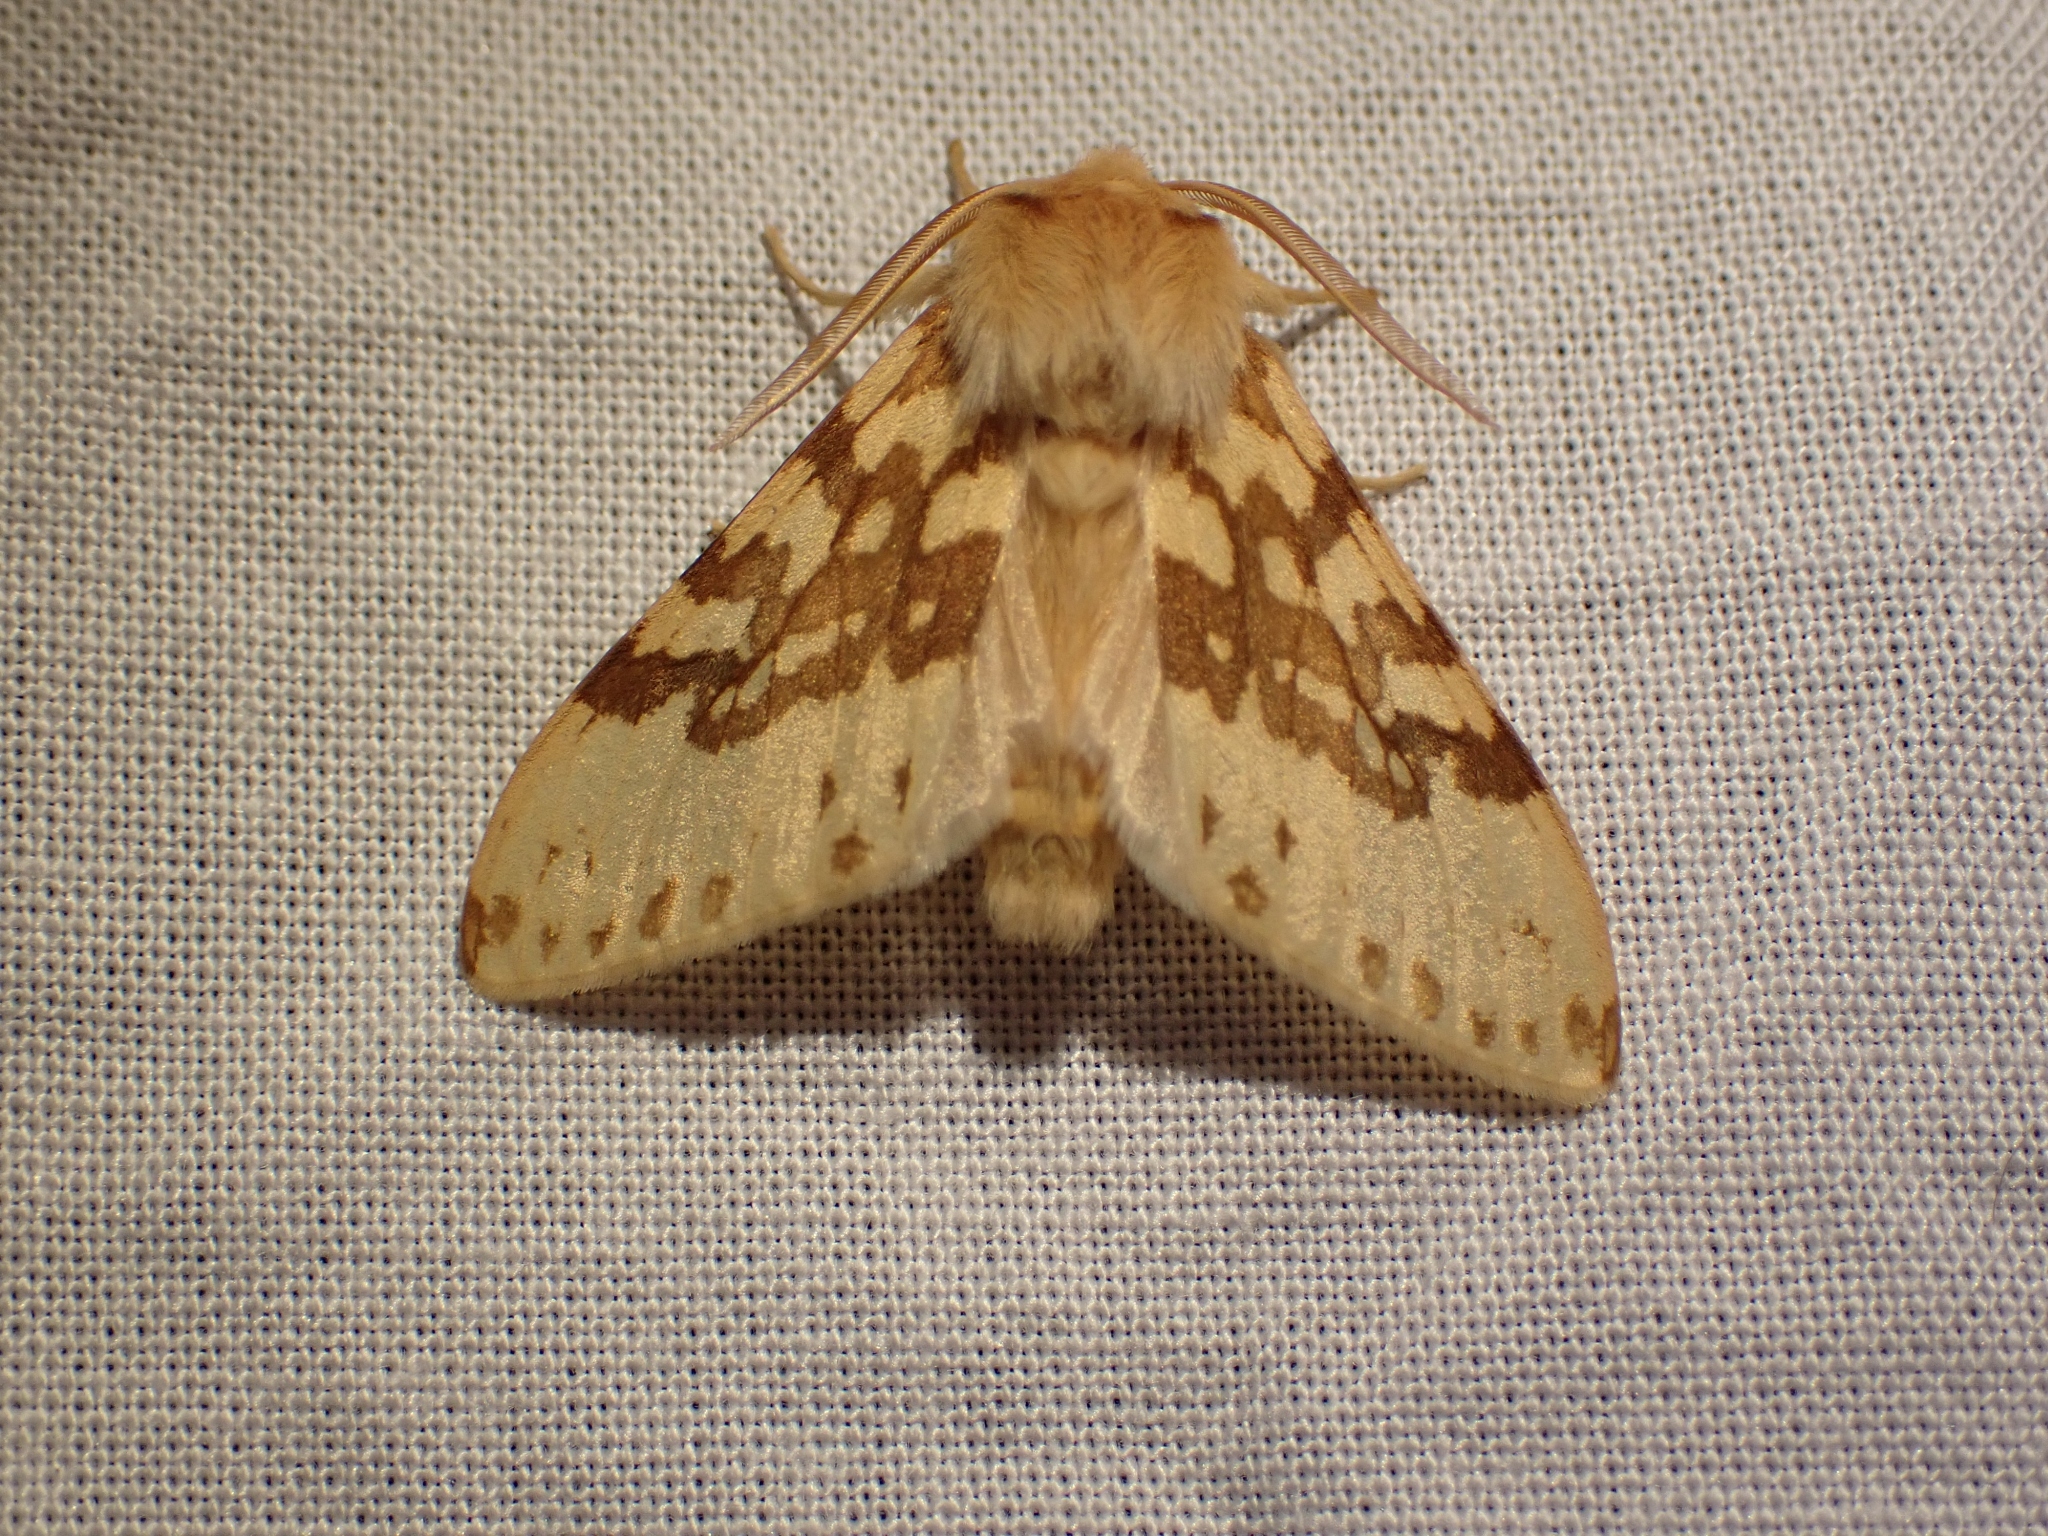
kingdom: Animalia
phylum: Arthropoda
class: Insecta
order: Lepidoptera
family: Erebidae
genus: Lophocampa
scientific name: Lophocampa maculata
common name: Spotted tussock moth
